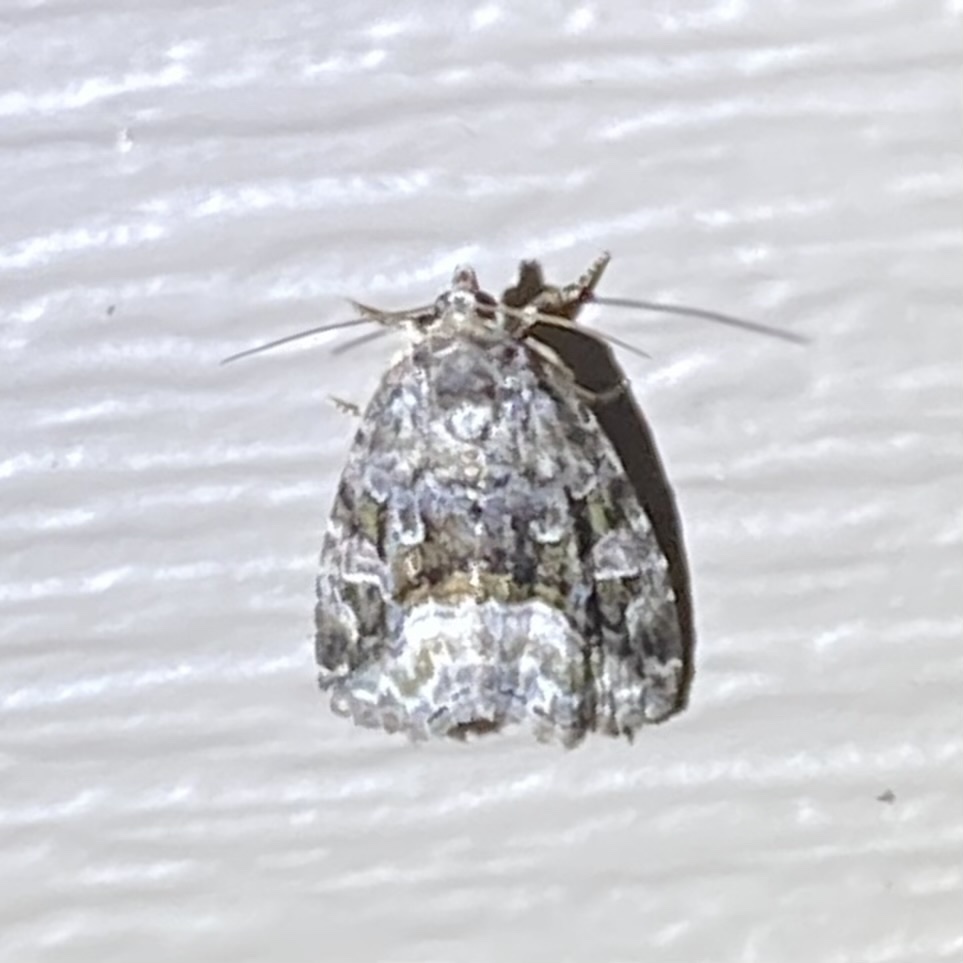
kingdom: Animalia
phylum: Arthropoda
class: Insecta
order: Lepidoptera
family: Noctuidae
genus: Protodeltote
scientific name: Protodeltote muscosula
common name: Large mossy glyph
